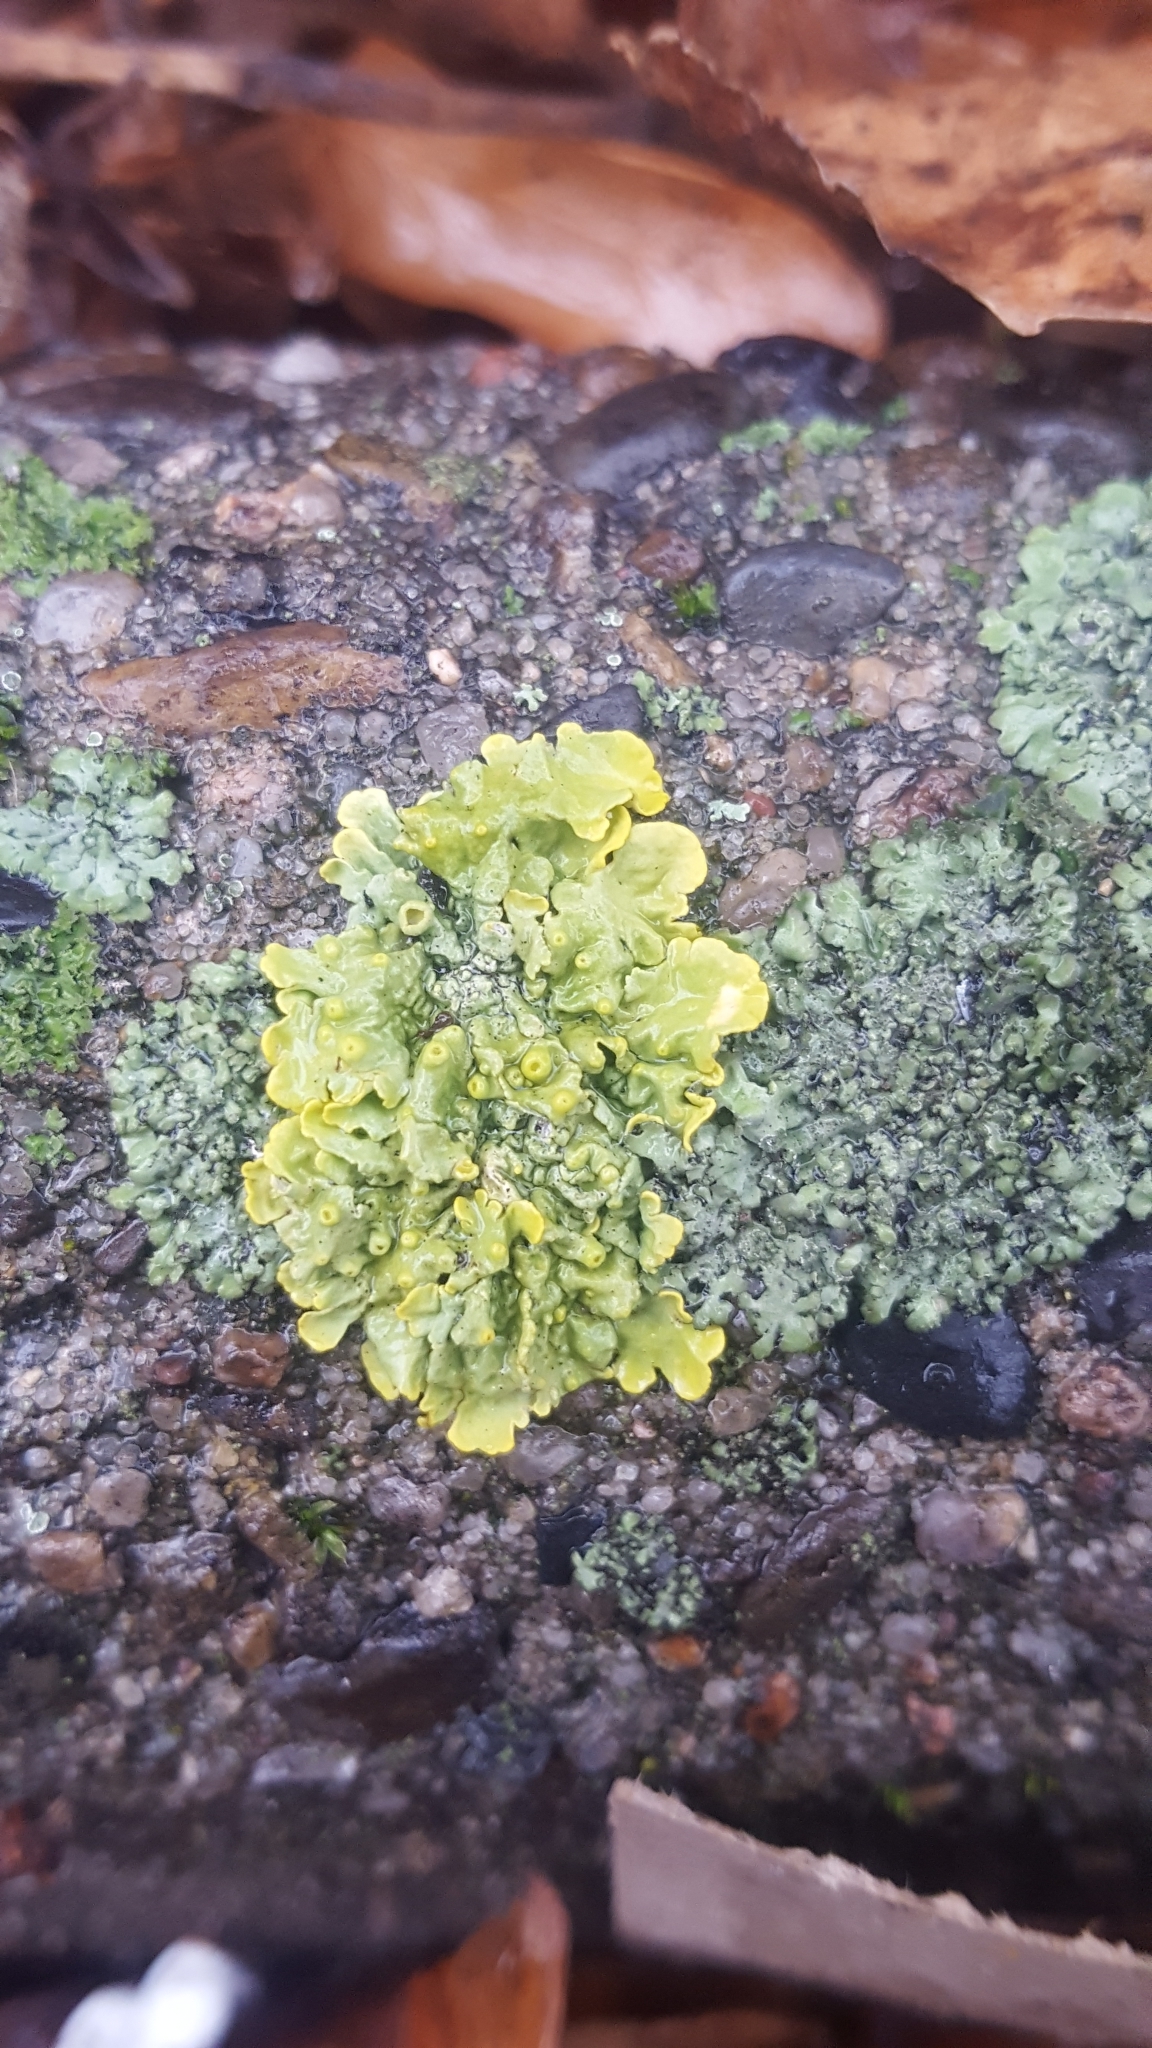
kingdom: Fungi
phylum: Ascomycota
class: Lecanoromycetes
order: Teloschistales
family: Teloschistaceae
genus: Xanthoria
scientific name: Xanthoria parietina
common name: Common orange lichen
